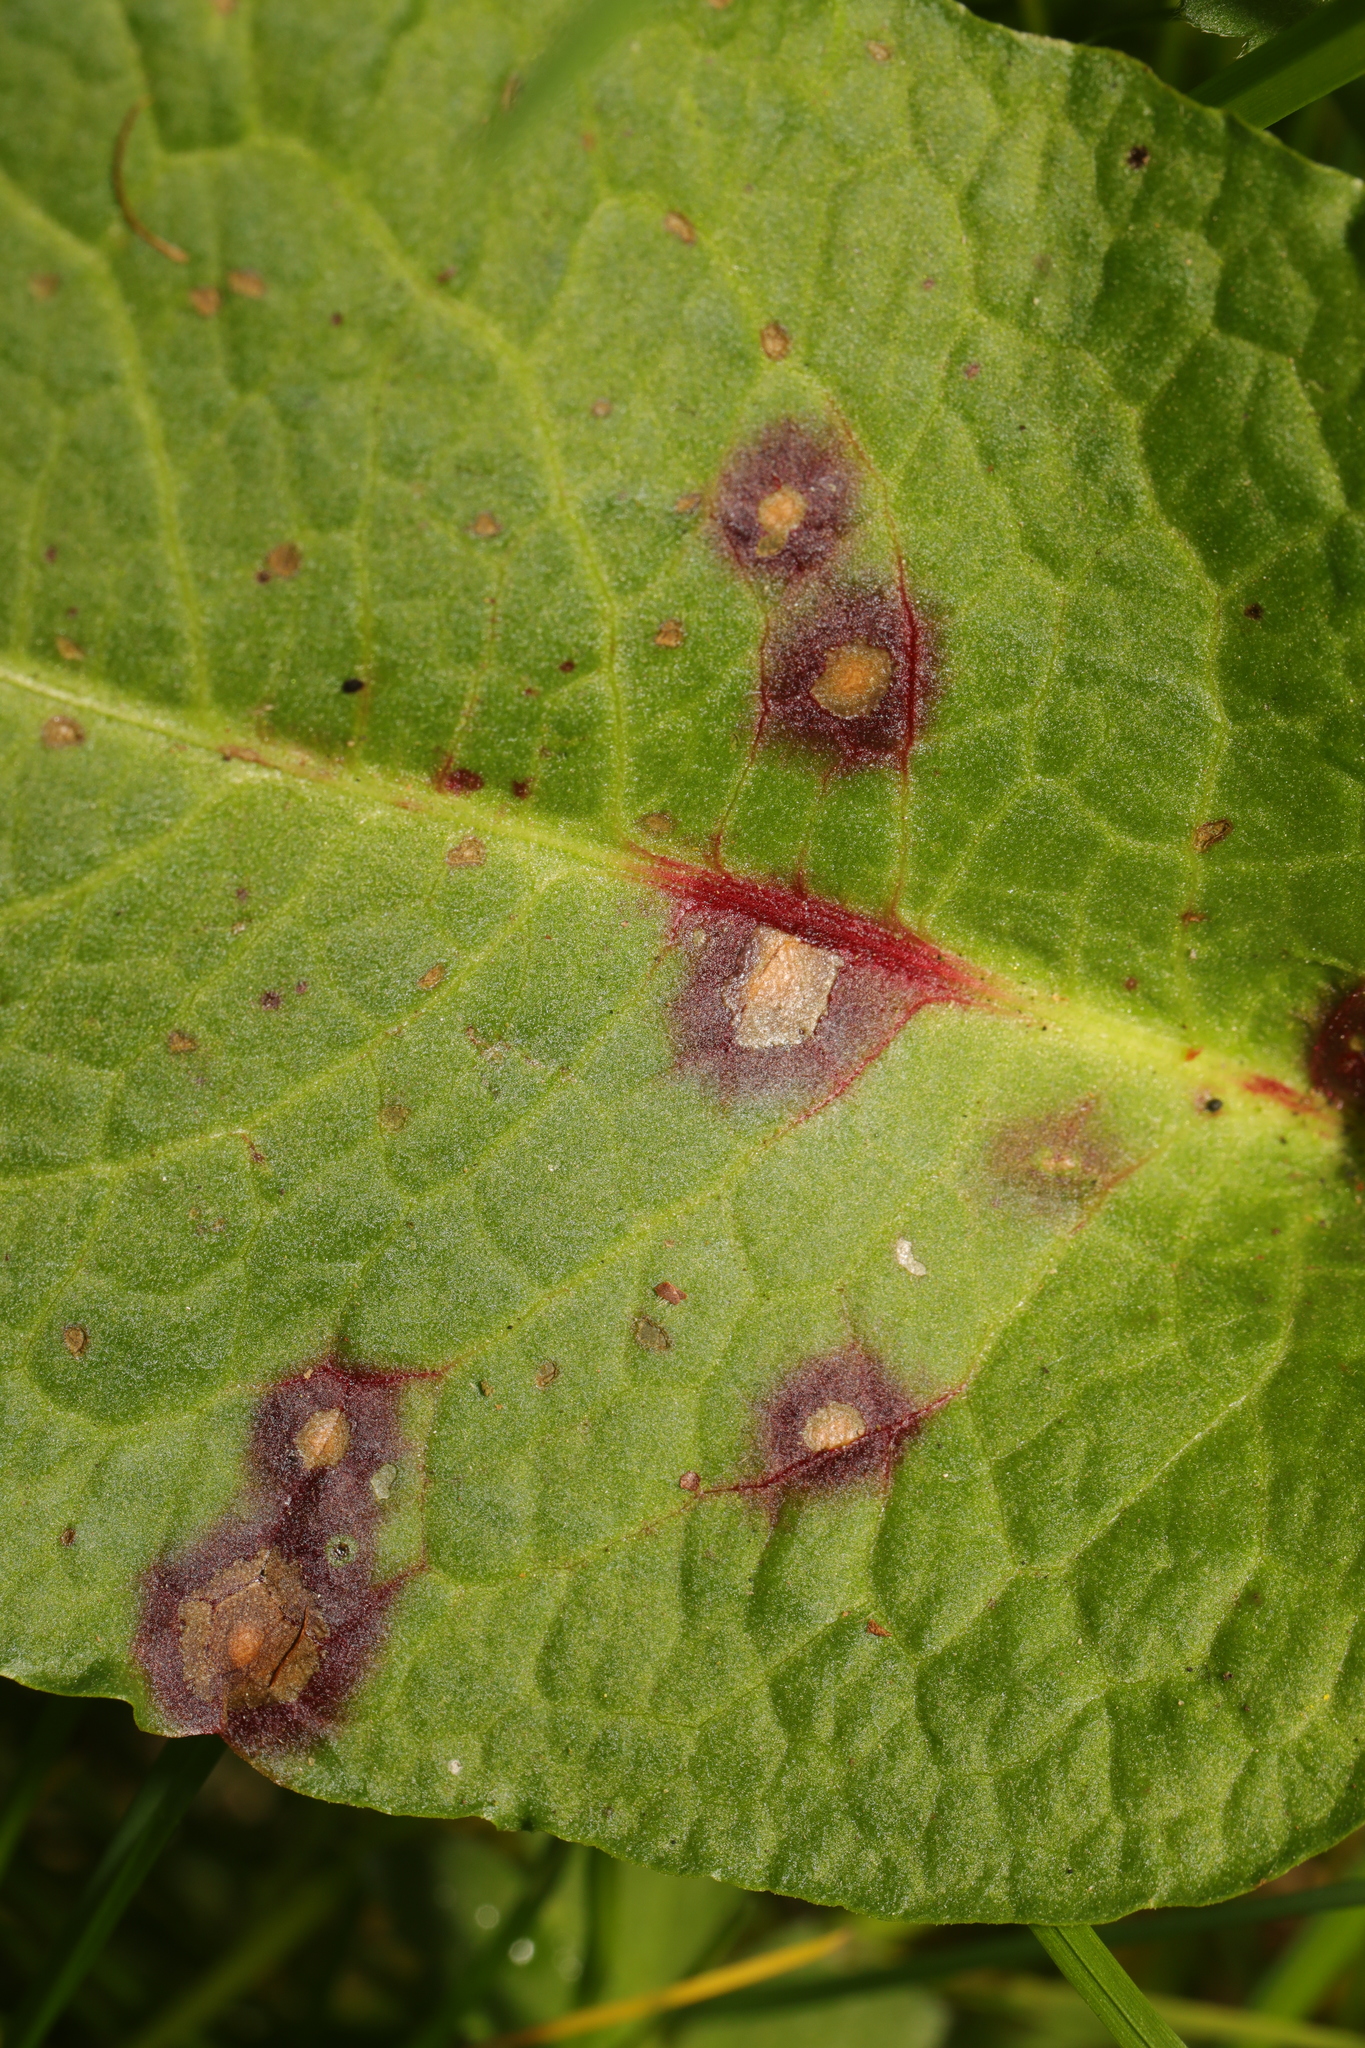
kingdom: Fungi
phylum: Ascomycota
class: Dothideomycetes
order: Mycosphaerellales
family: Mycosphaerellaceae
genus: Ramularia
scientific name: Ramularia rubella
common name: Red dock spot
